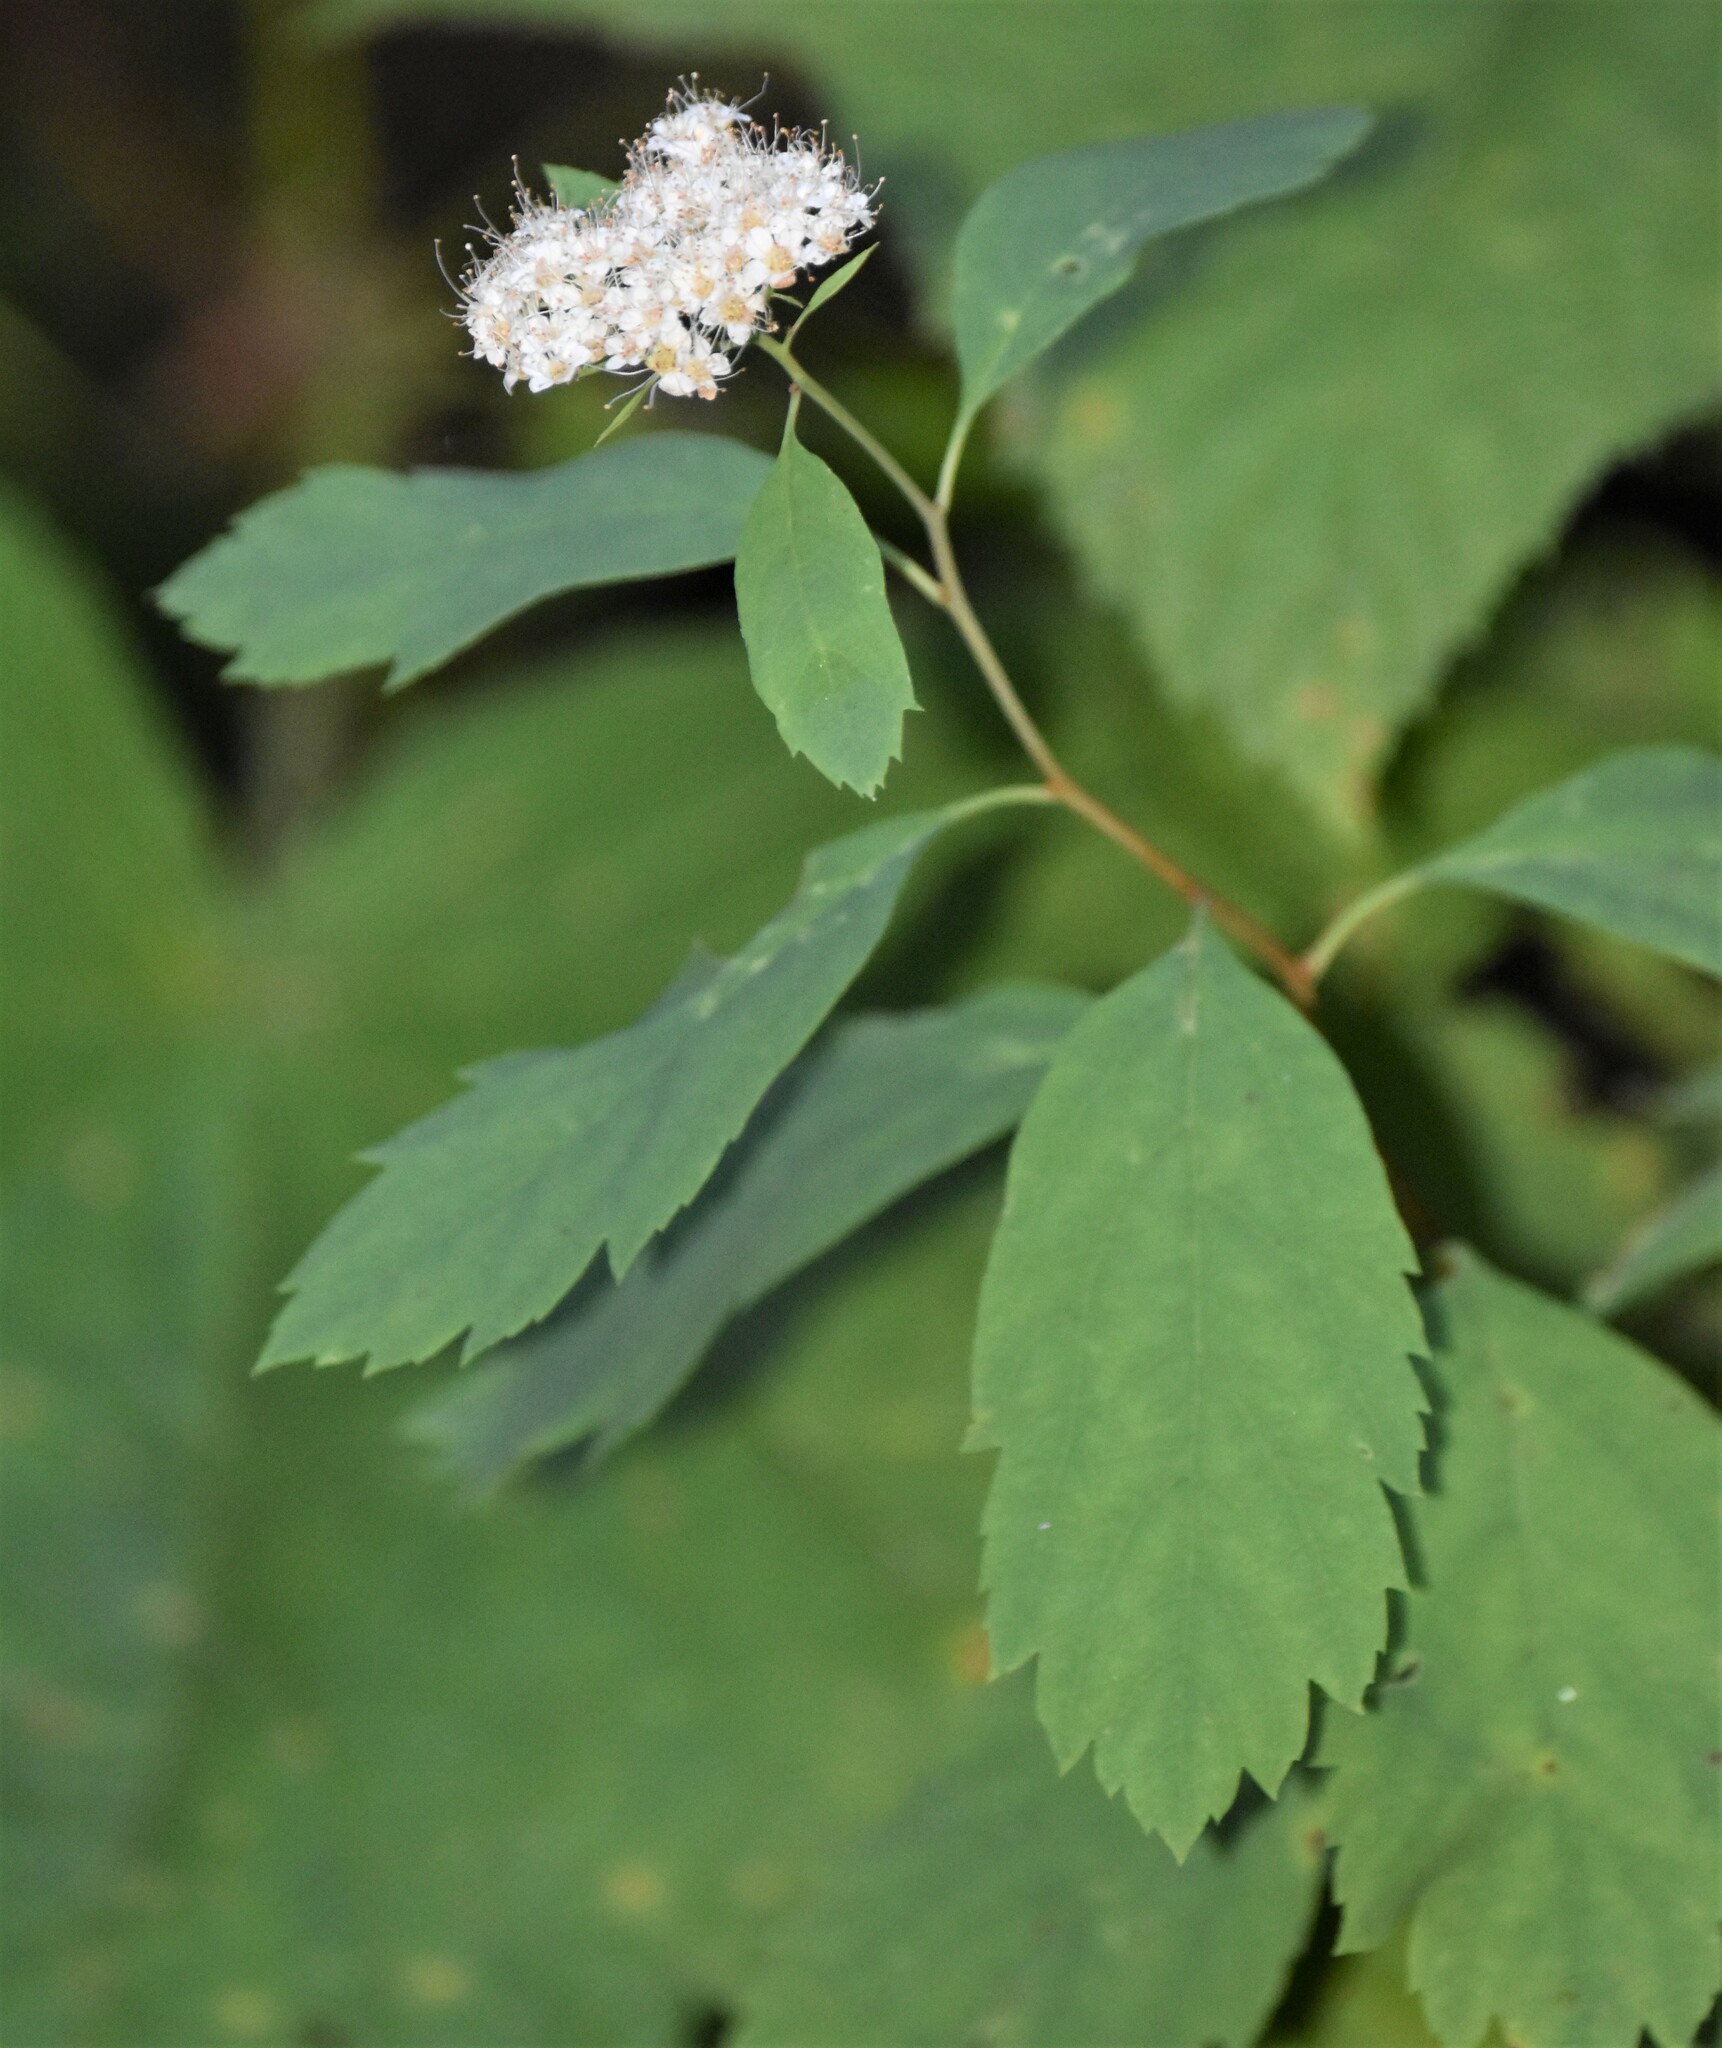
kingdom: Plantae
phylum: Tracheophyta
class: Magnoliopsida
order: Rosales
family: Rosaceae
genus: Spiraea
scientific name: Spiraea lucida
